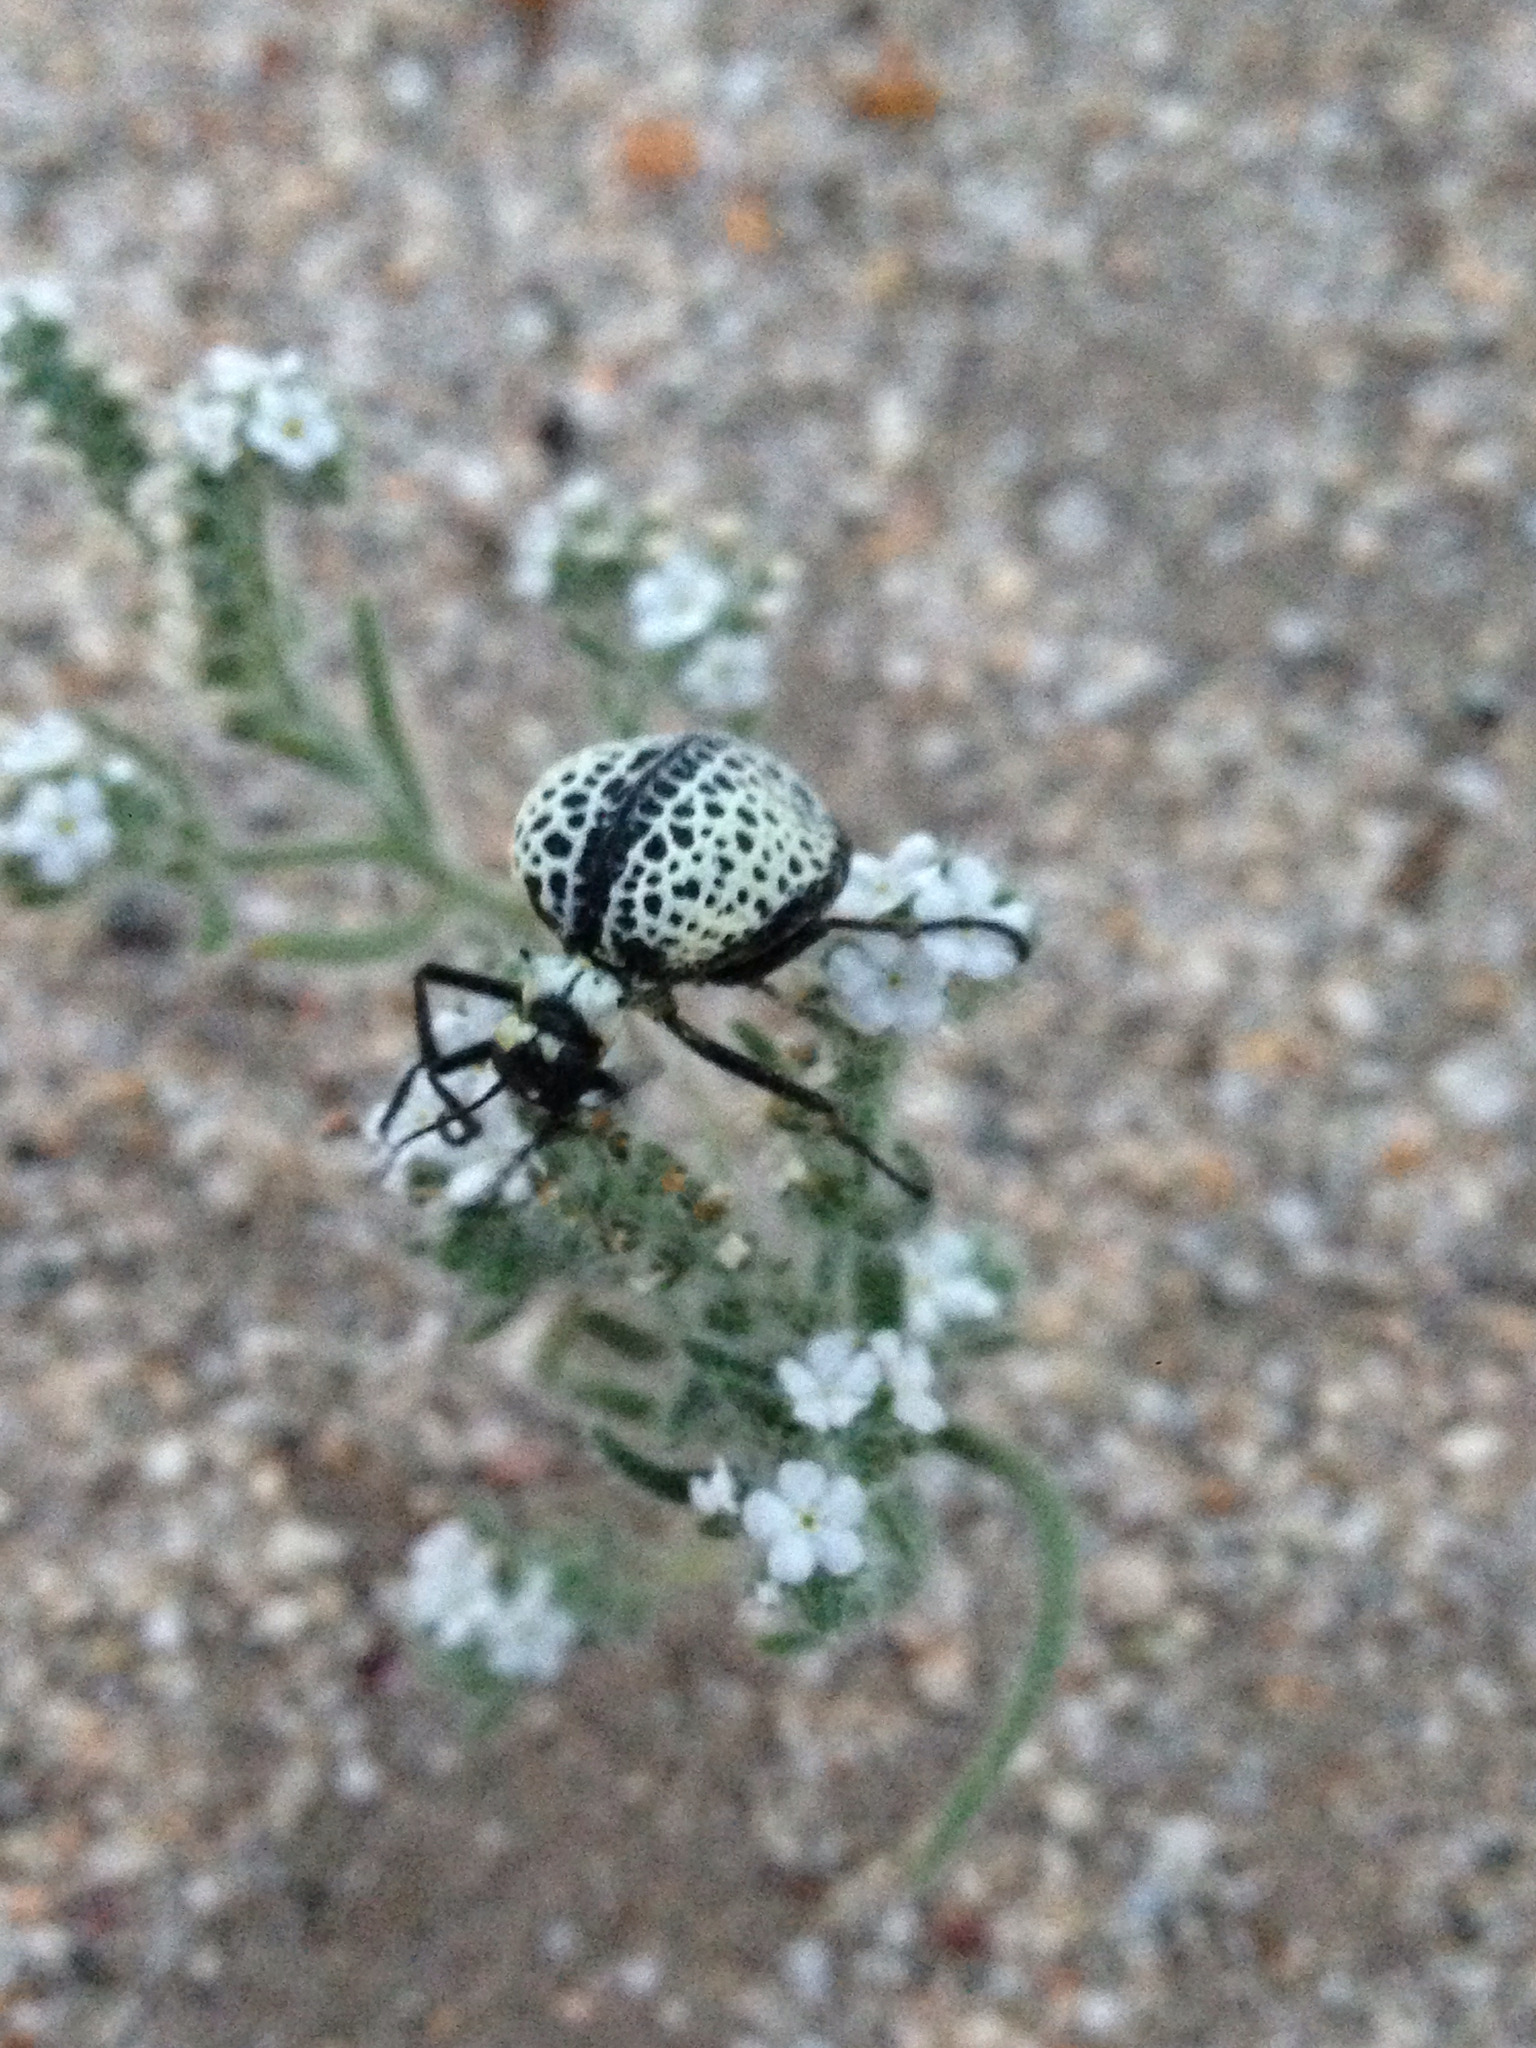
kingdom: Animalia
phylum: Arthropoda
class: Insecta
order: Coleoptera
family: Meloidae
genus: Cysteodemus
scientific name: Cysteodemus armatus
